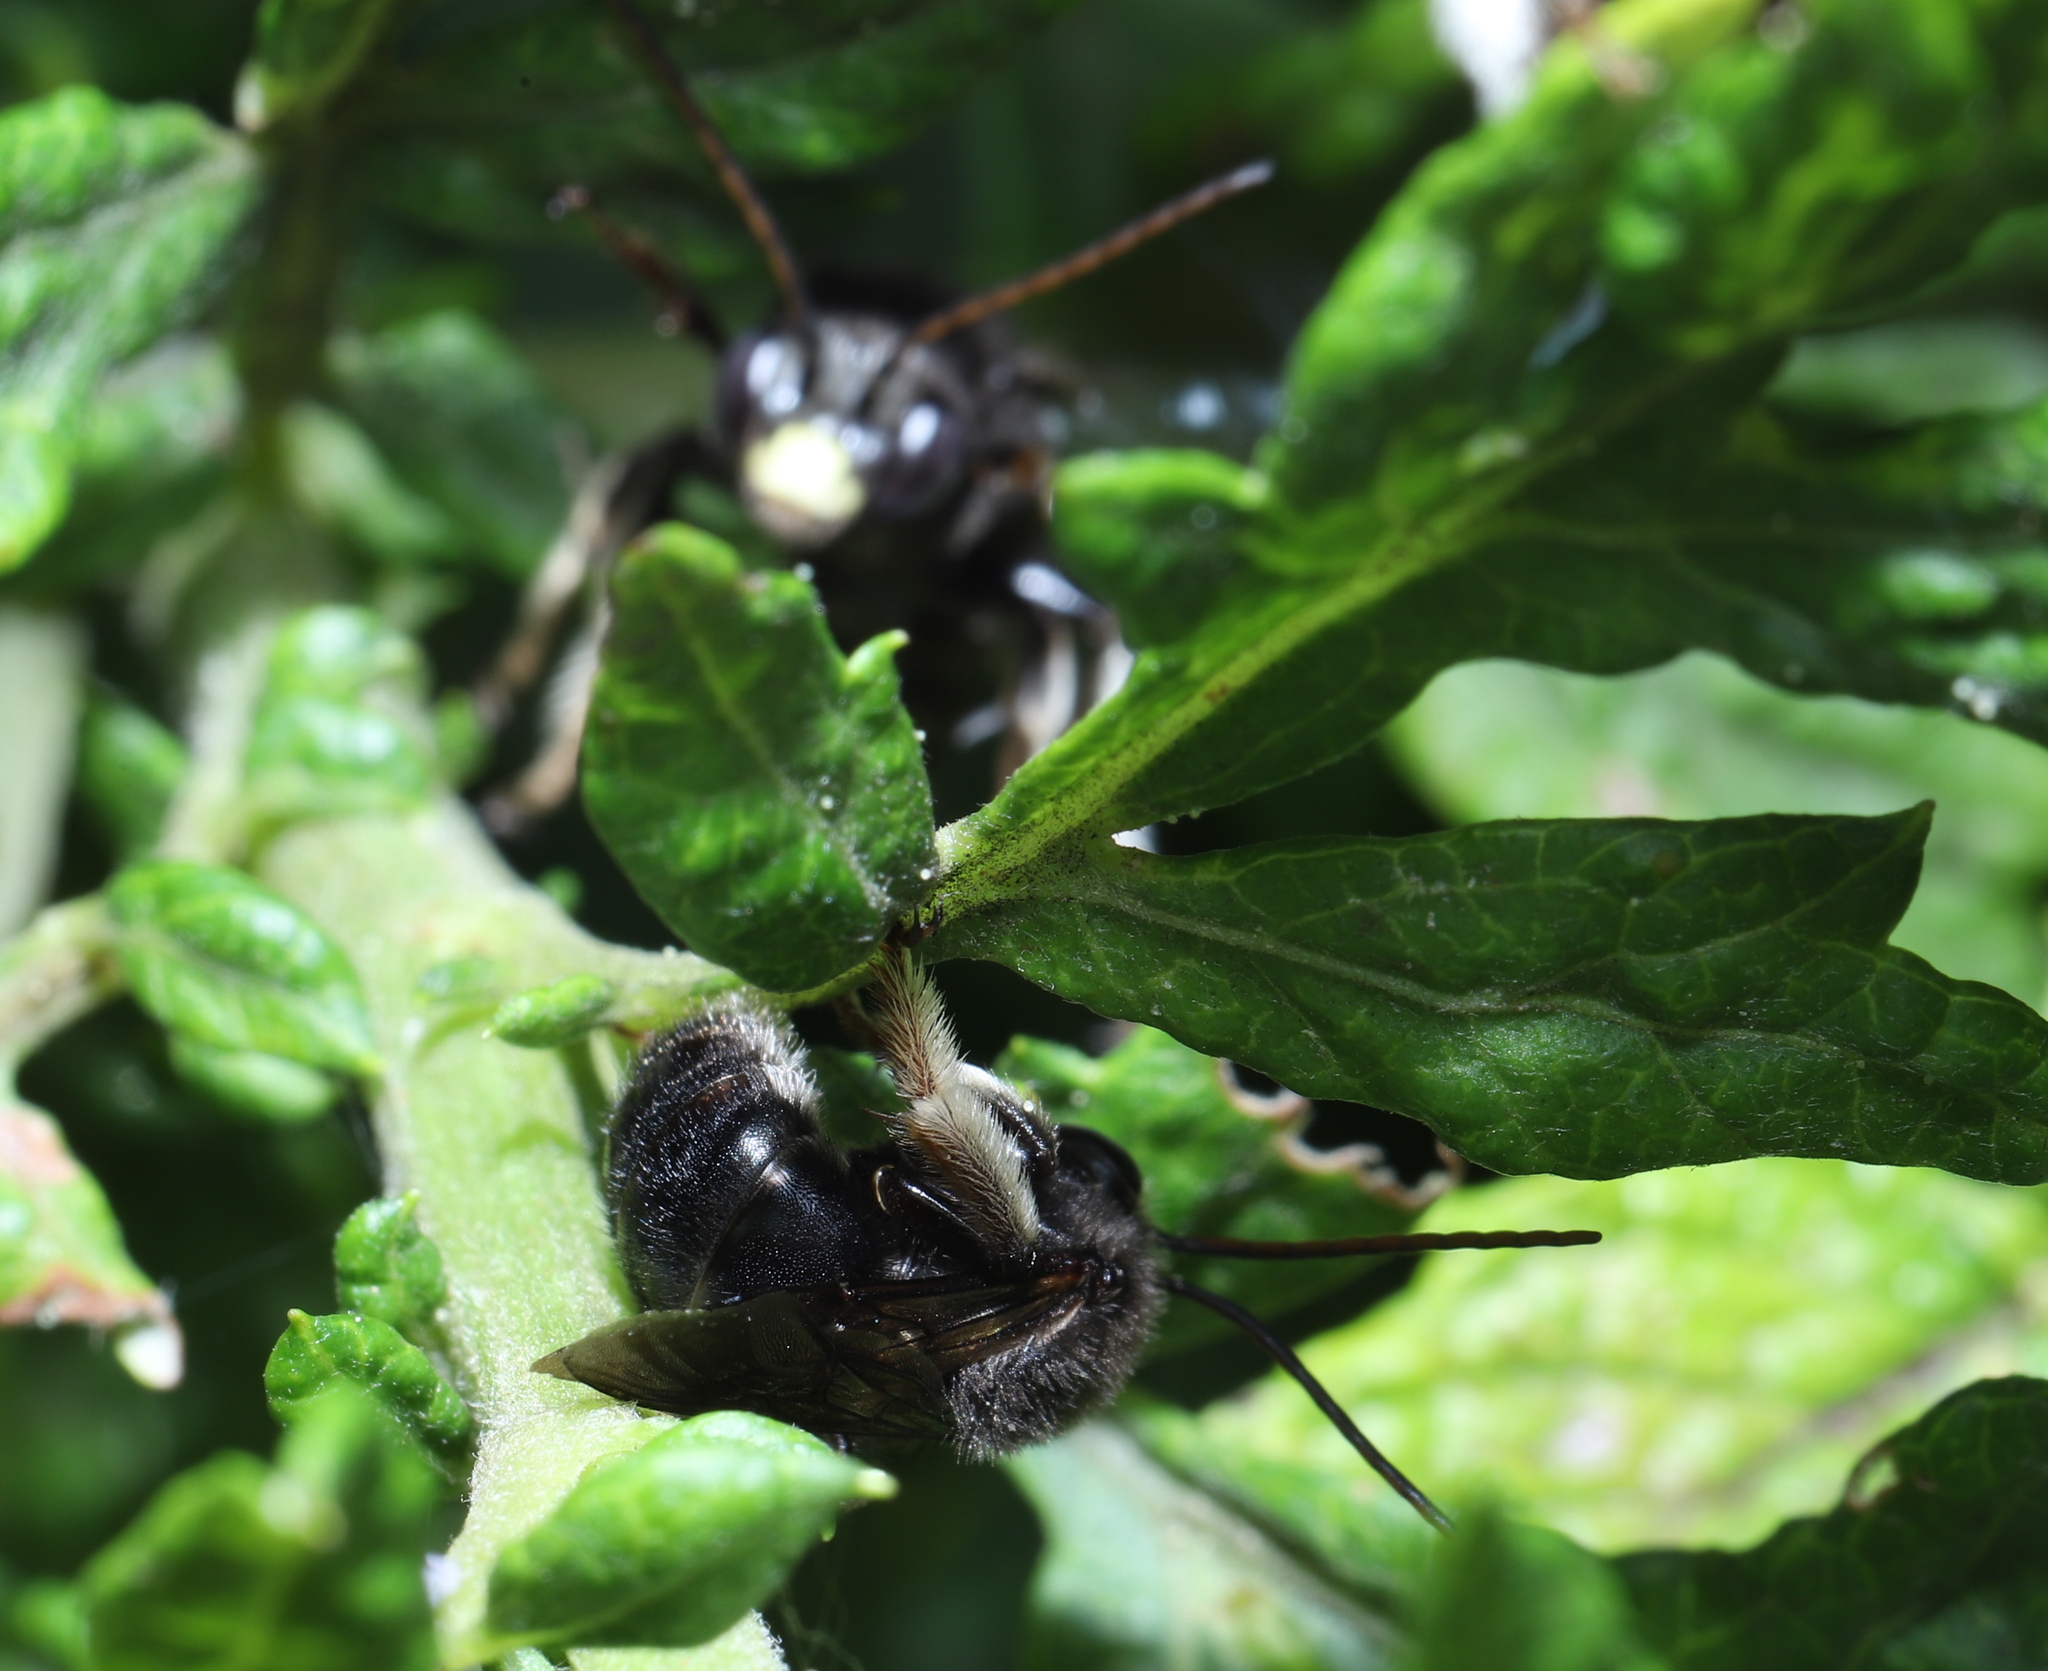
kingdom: Animalia
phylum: Arthropoda
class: Insecta
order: Hymenoptera
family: Apidae
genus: Melissodes
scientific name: Melissodes bimaculatus
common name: Two-spotted long-horned bee
